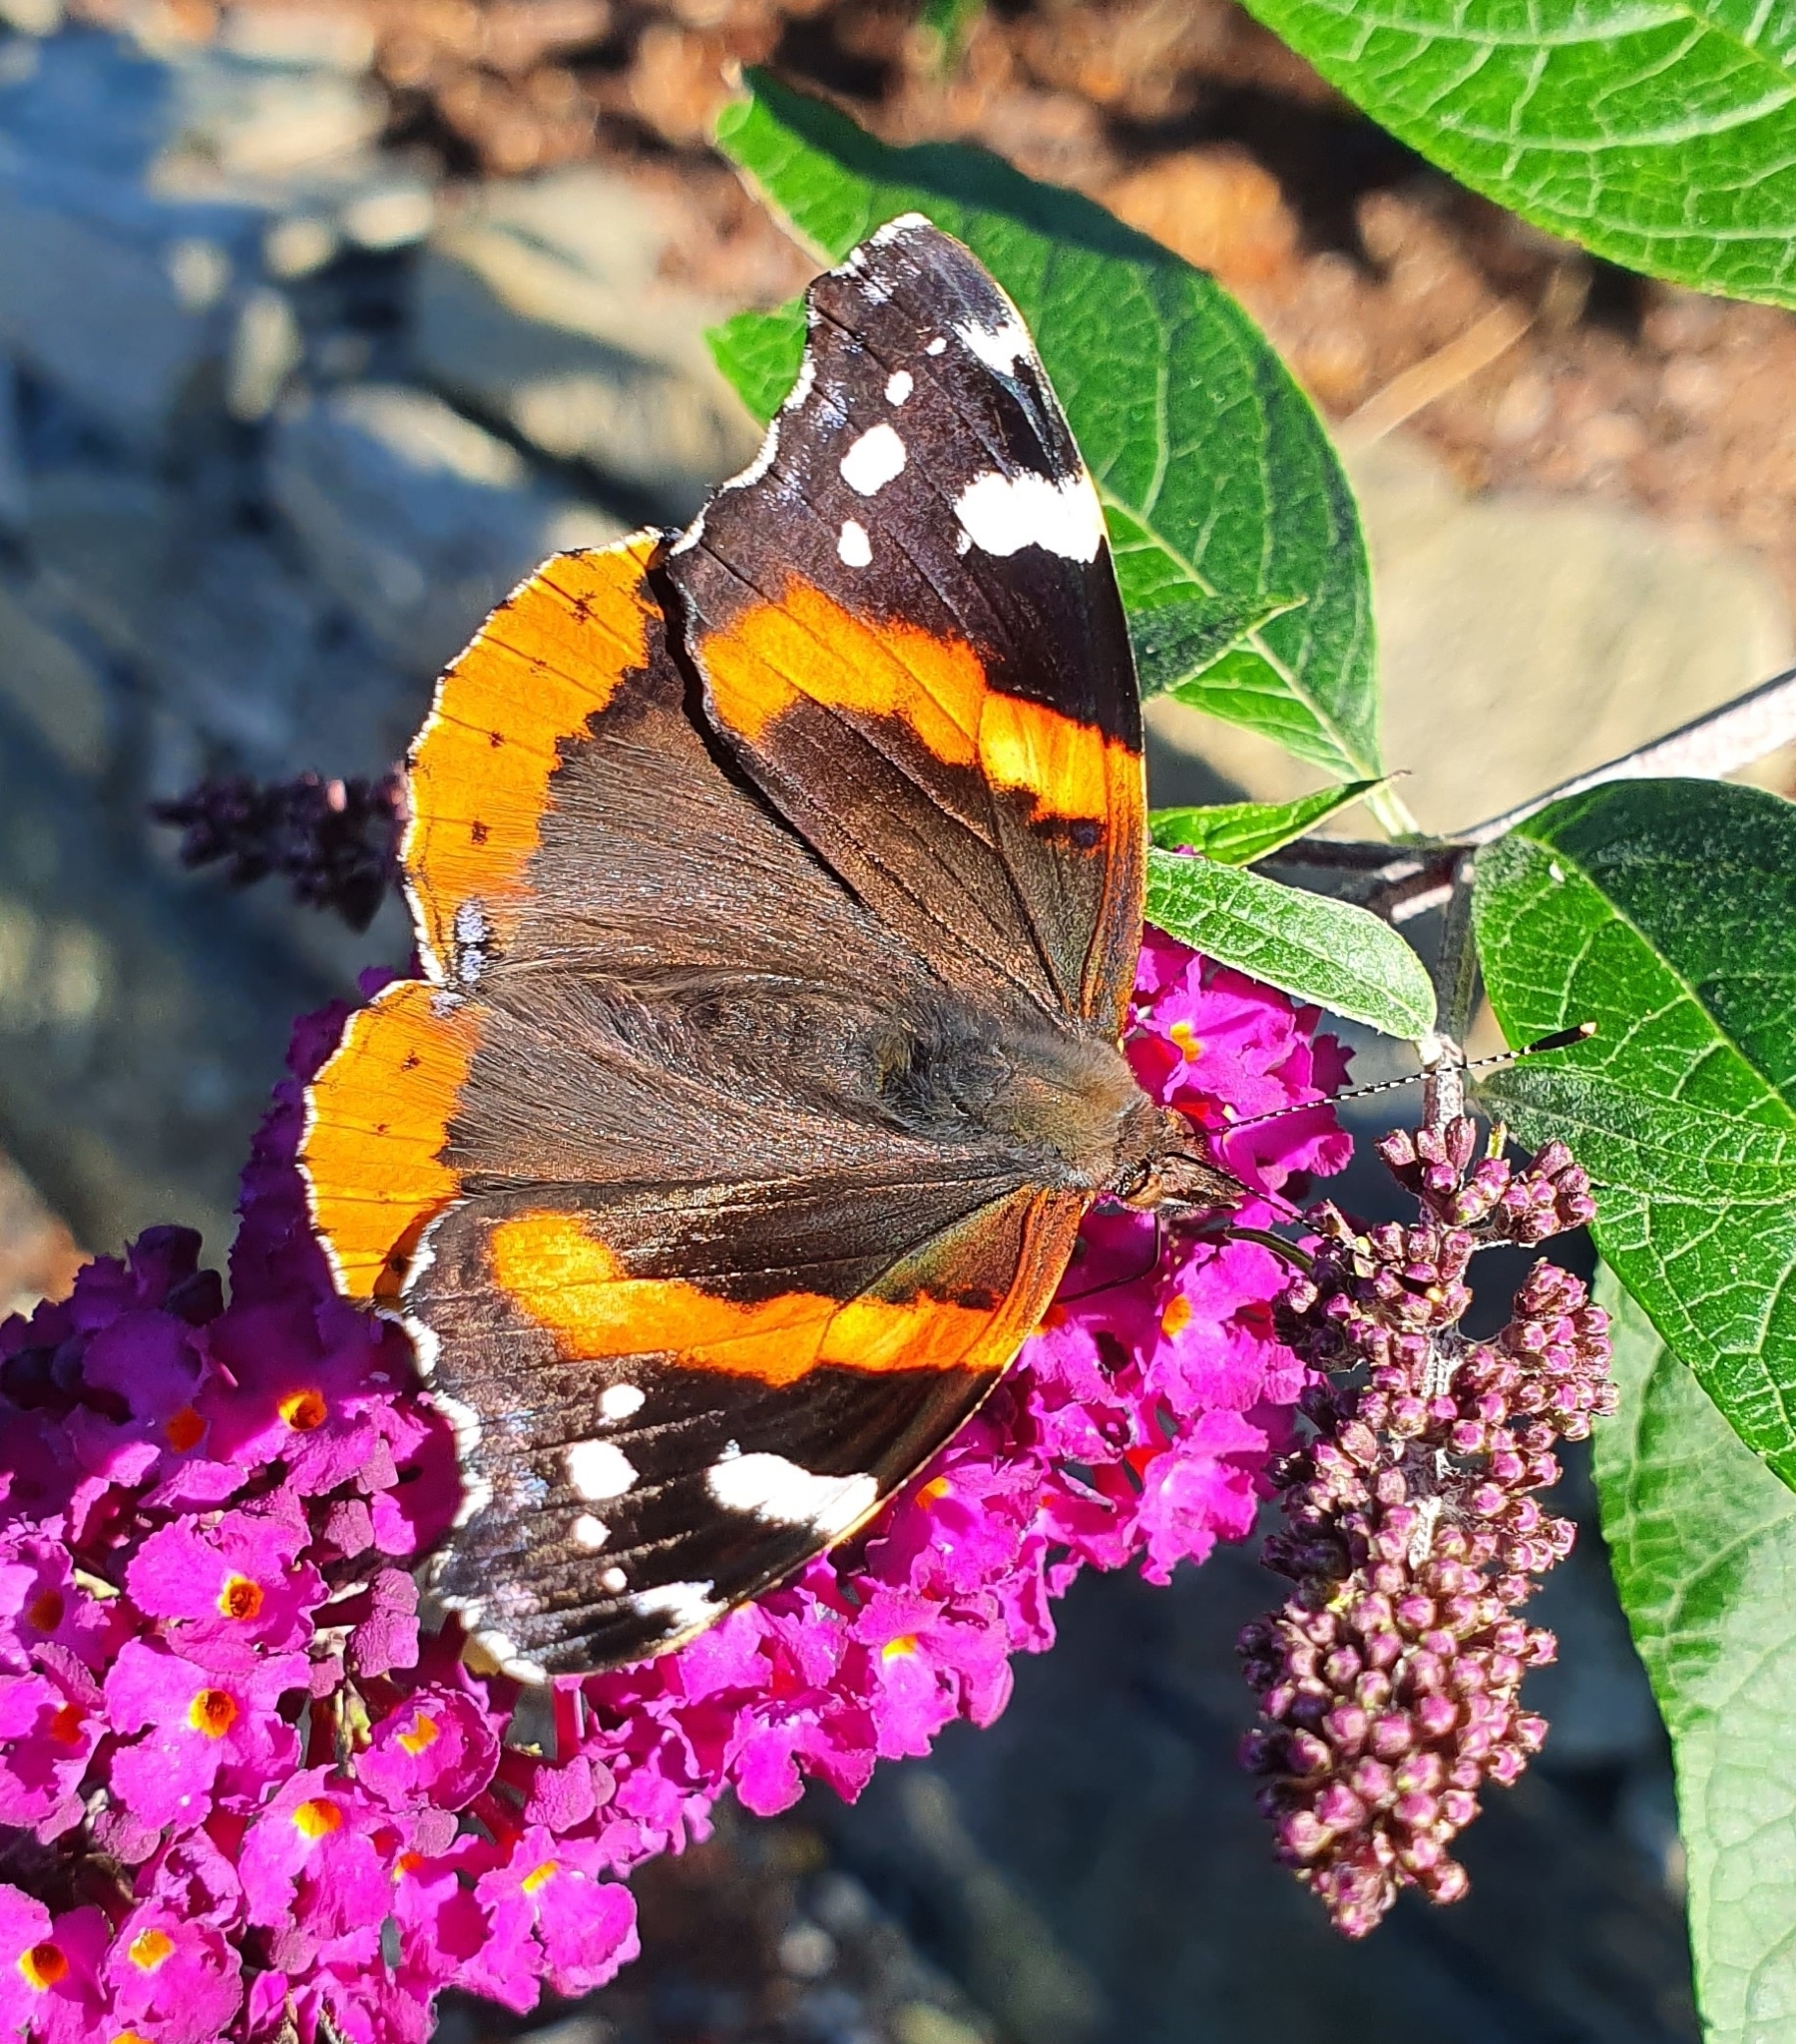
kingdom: Animalia
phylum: Arthropoda
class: Insecta
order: Lepidoptera
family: Nymphalidae
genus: Vanessa
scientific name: Vanessa atalanta
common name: Red admiral
